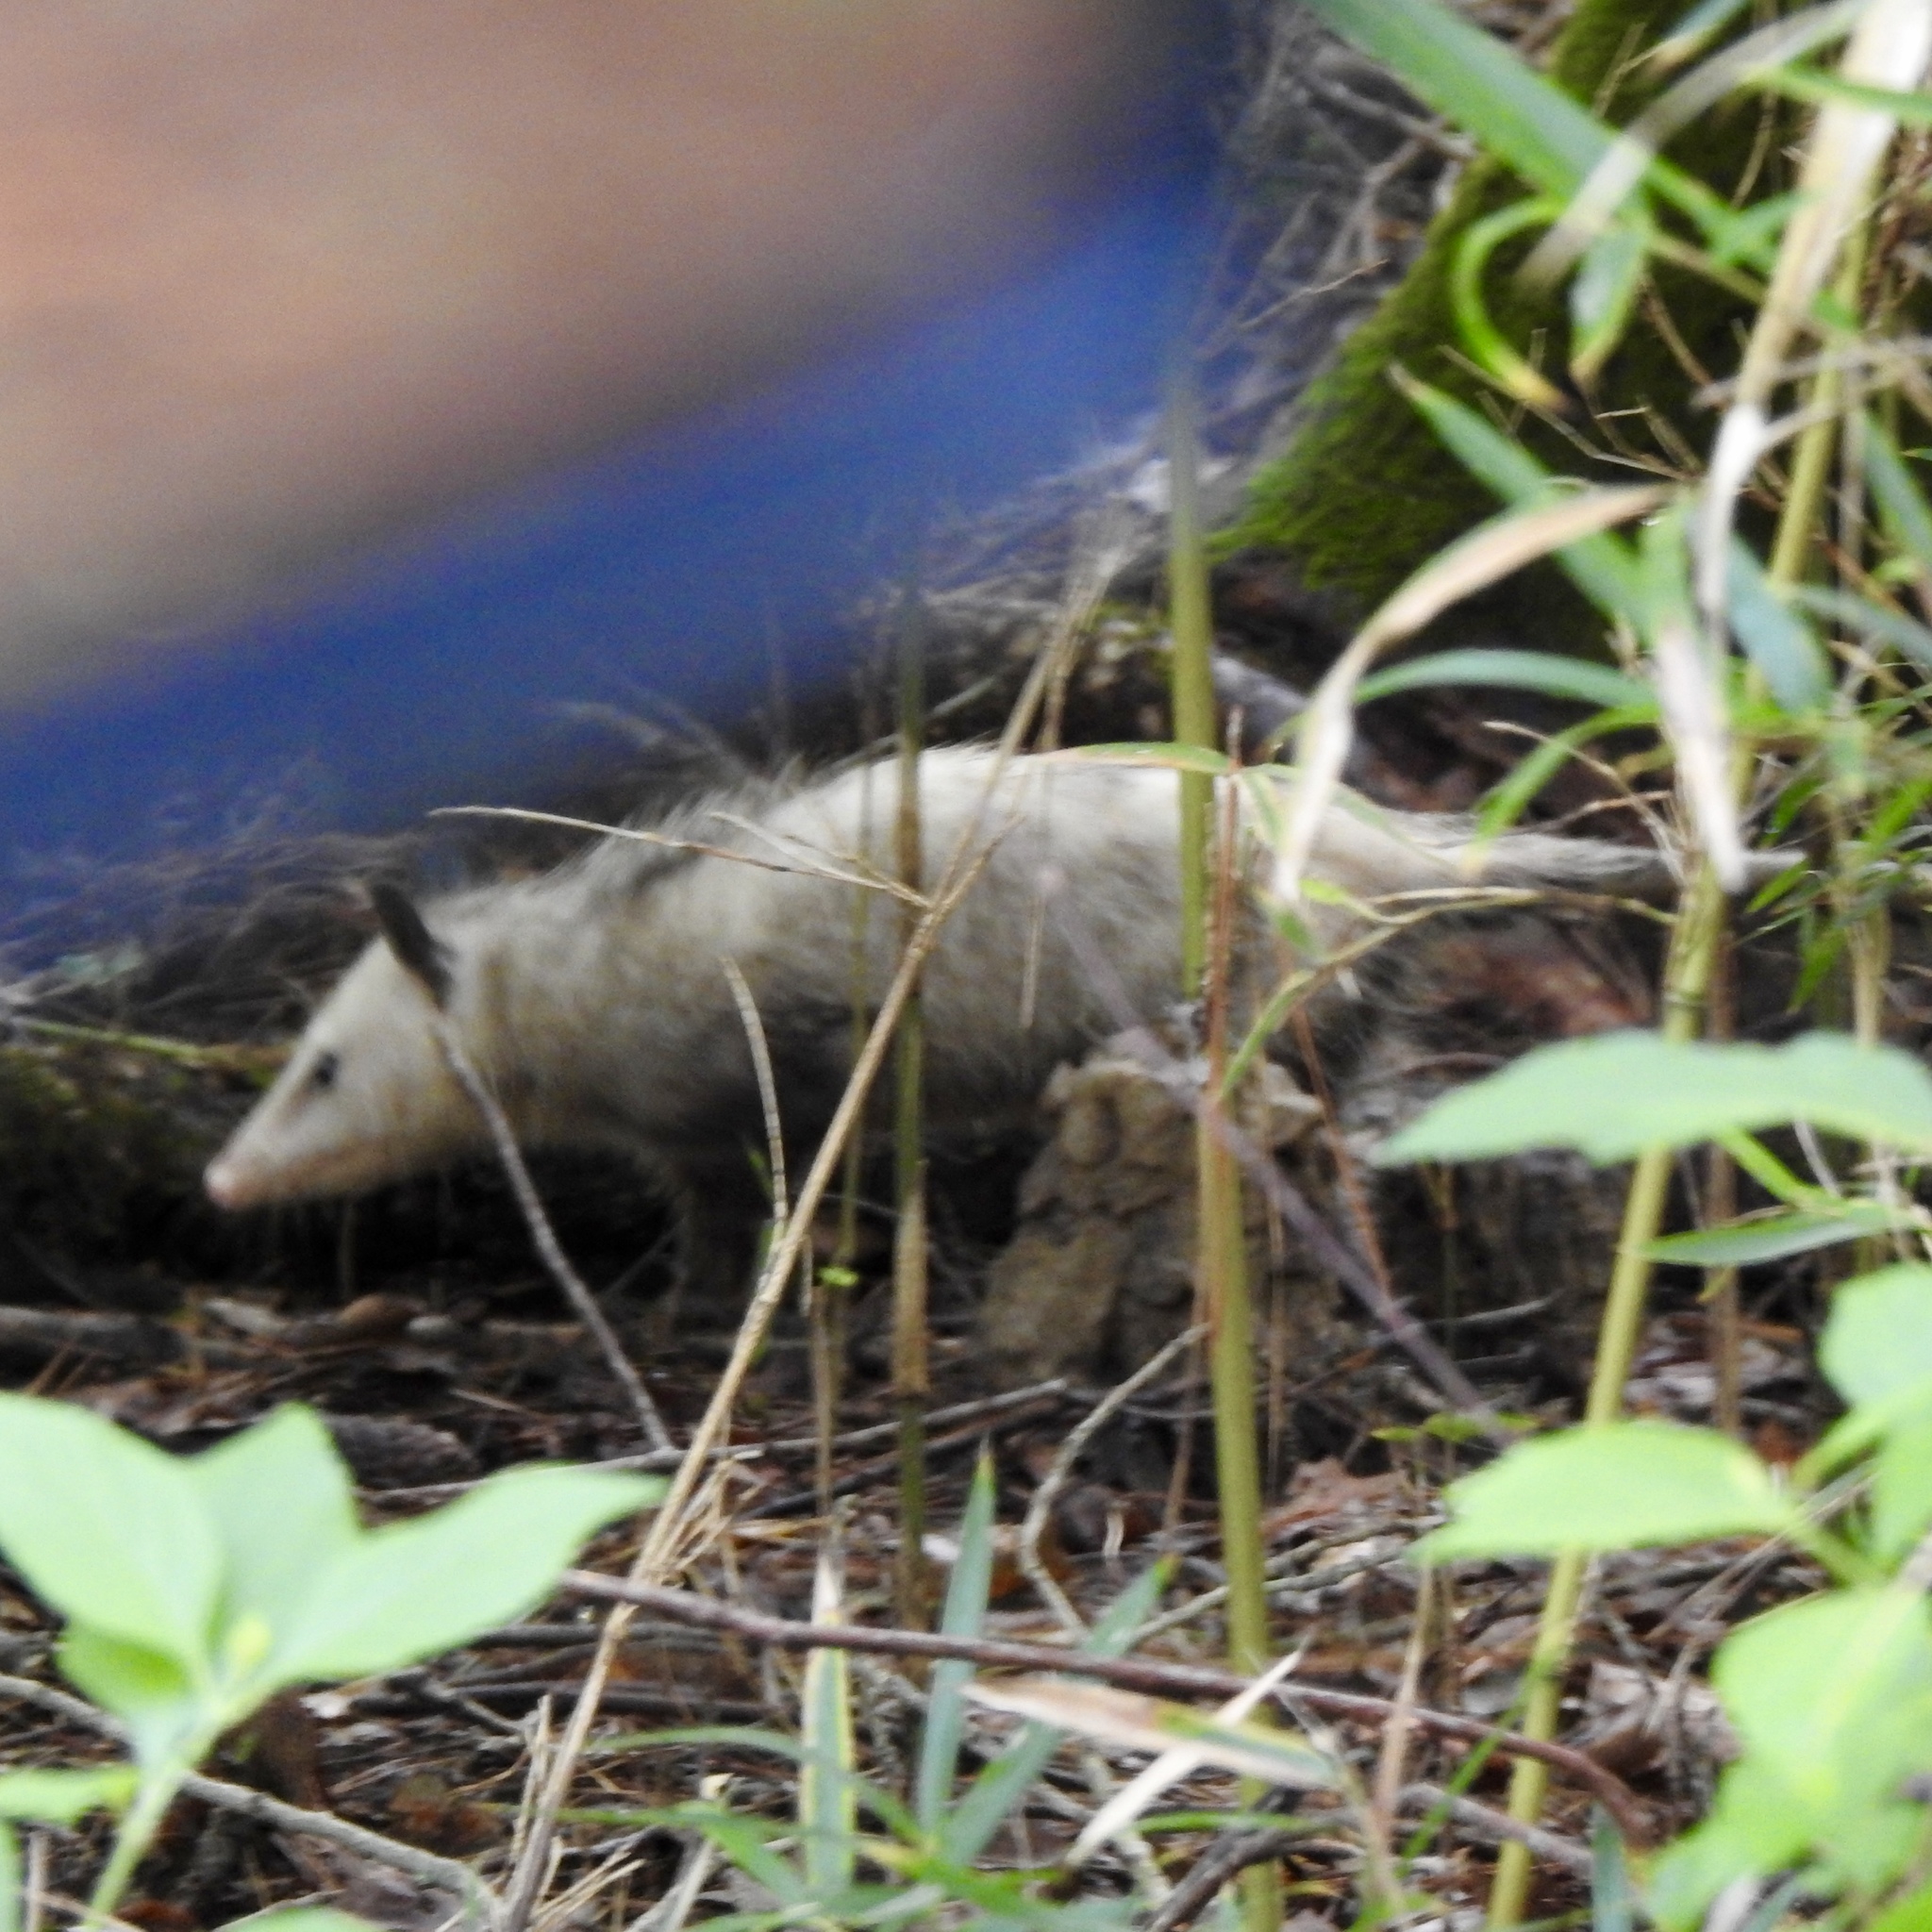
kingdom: Animalia
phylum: Chordata
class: Mammalia
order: Didelphimorphia
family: Didelphidae
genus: Didelphis
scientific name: Didelphis virginiana
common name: Virginia opossum
